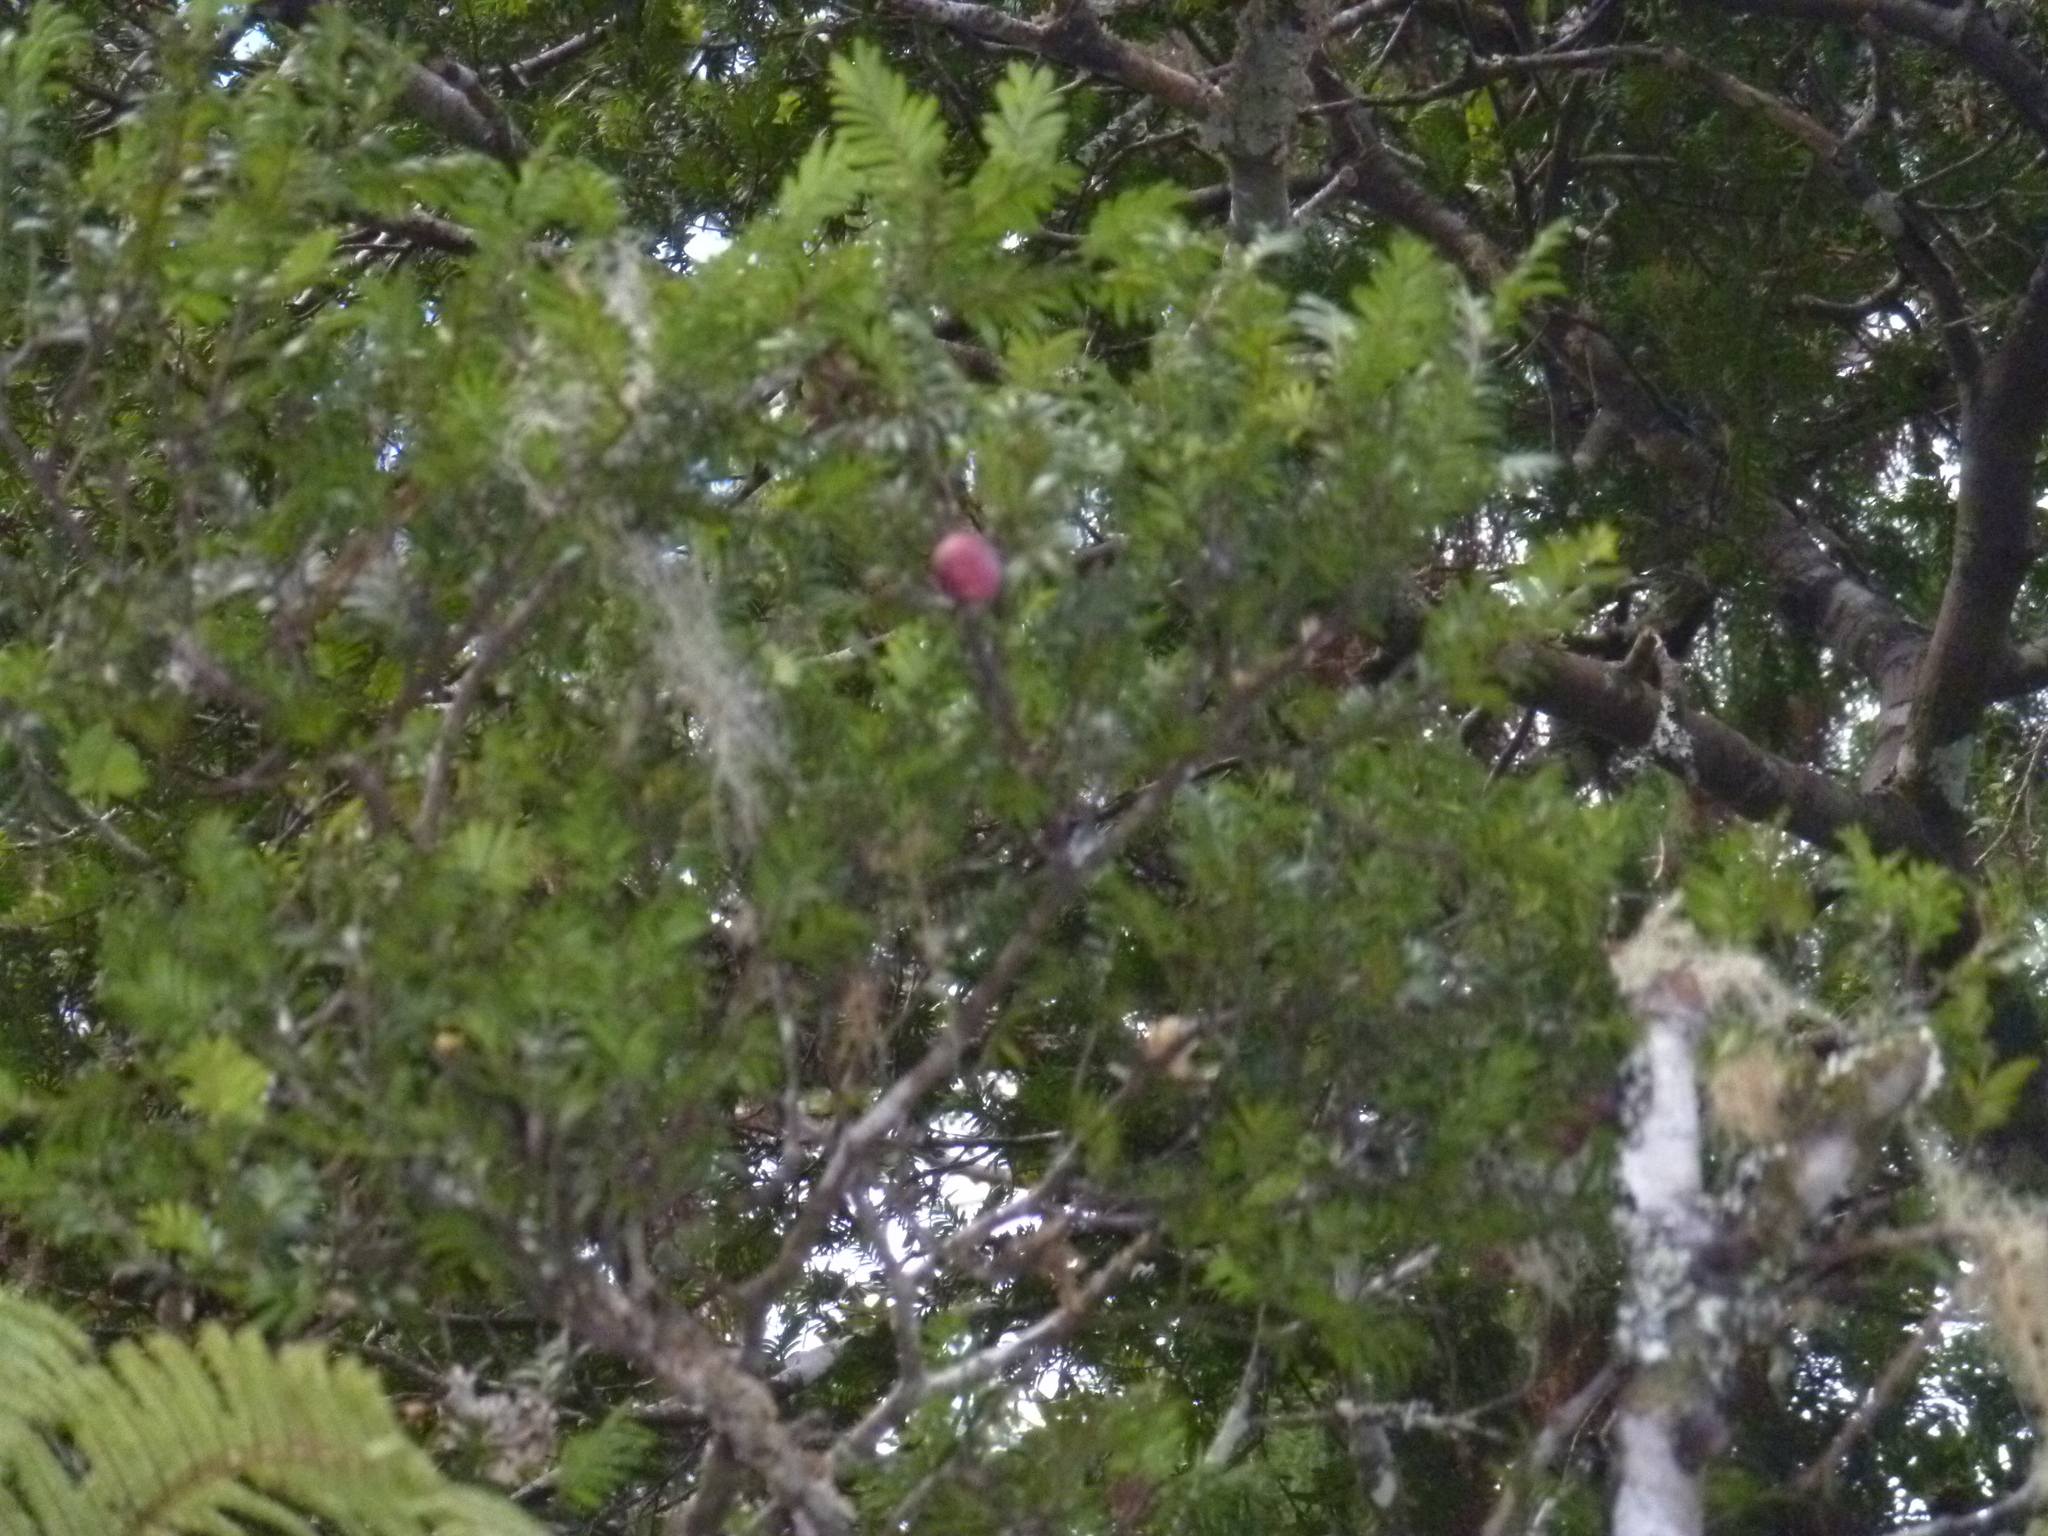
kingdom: Plantae
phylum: Tracheophyta
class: Pinopsida
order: Pinales
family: Podocarpaceae
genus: Prumnopitys
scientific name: Prumnopitys ferruginea
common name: Brown pine
